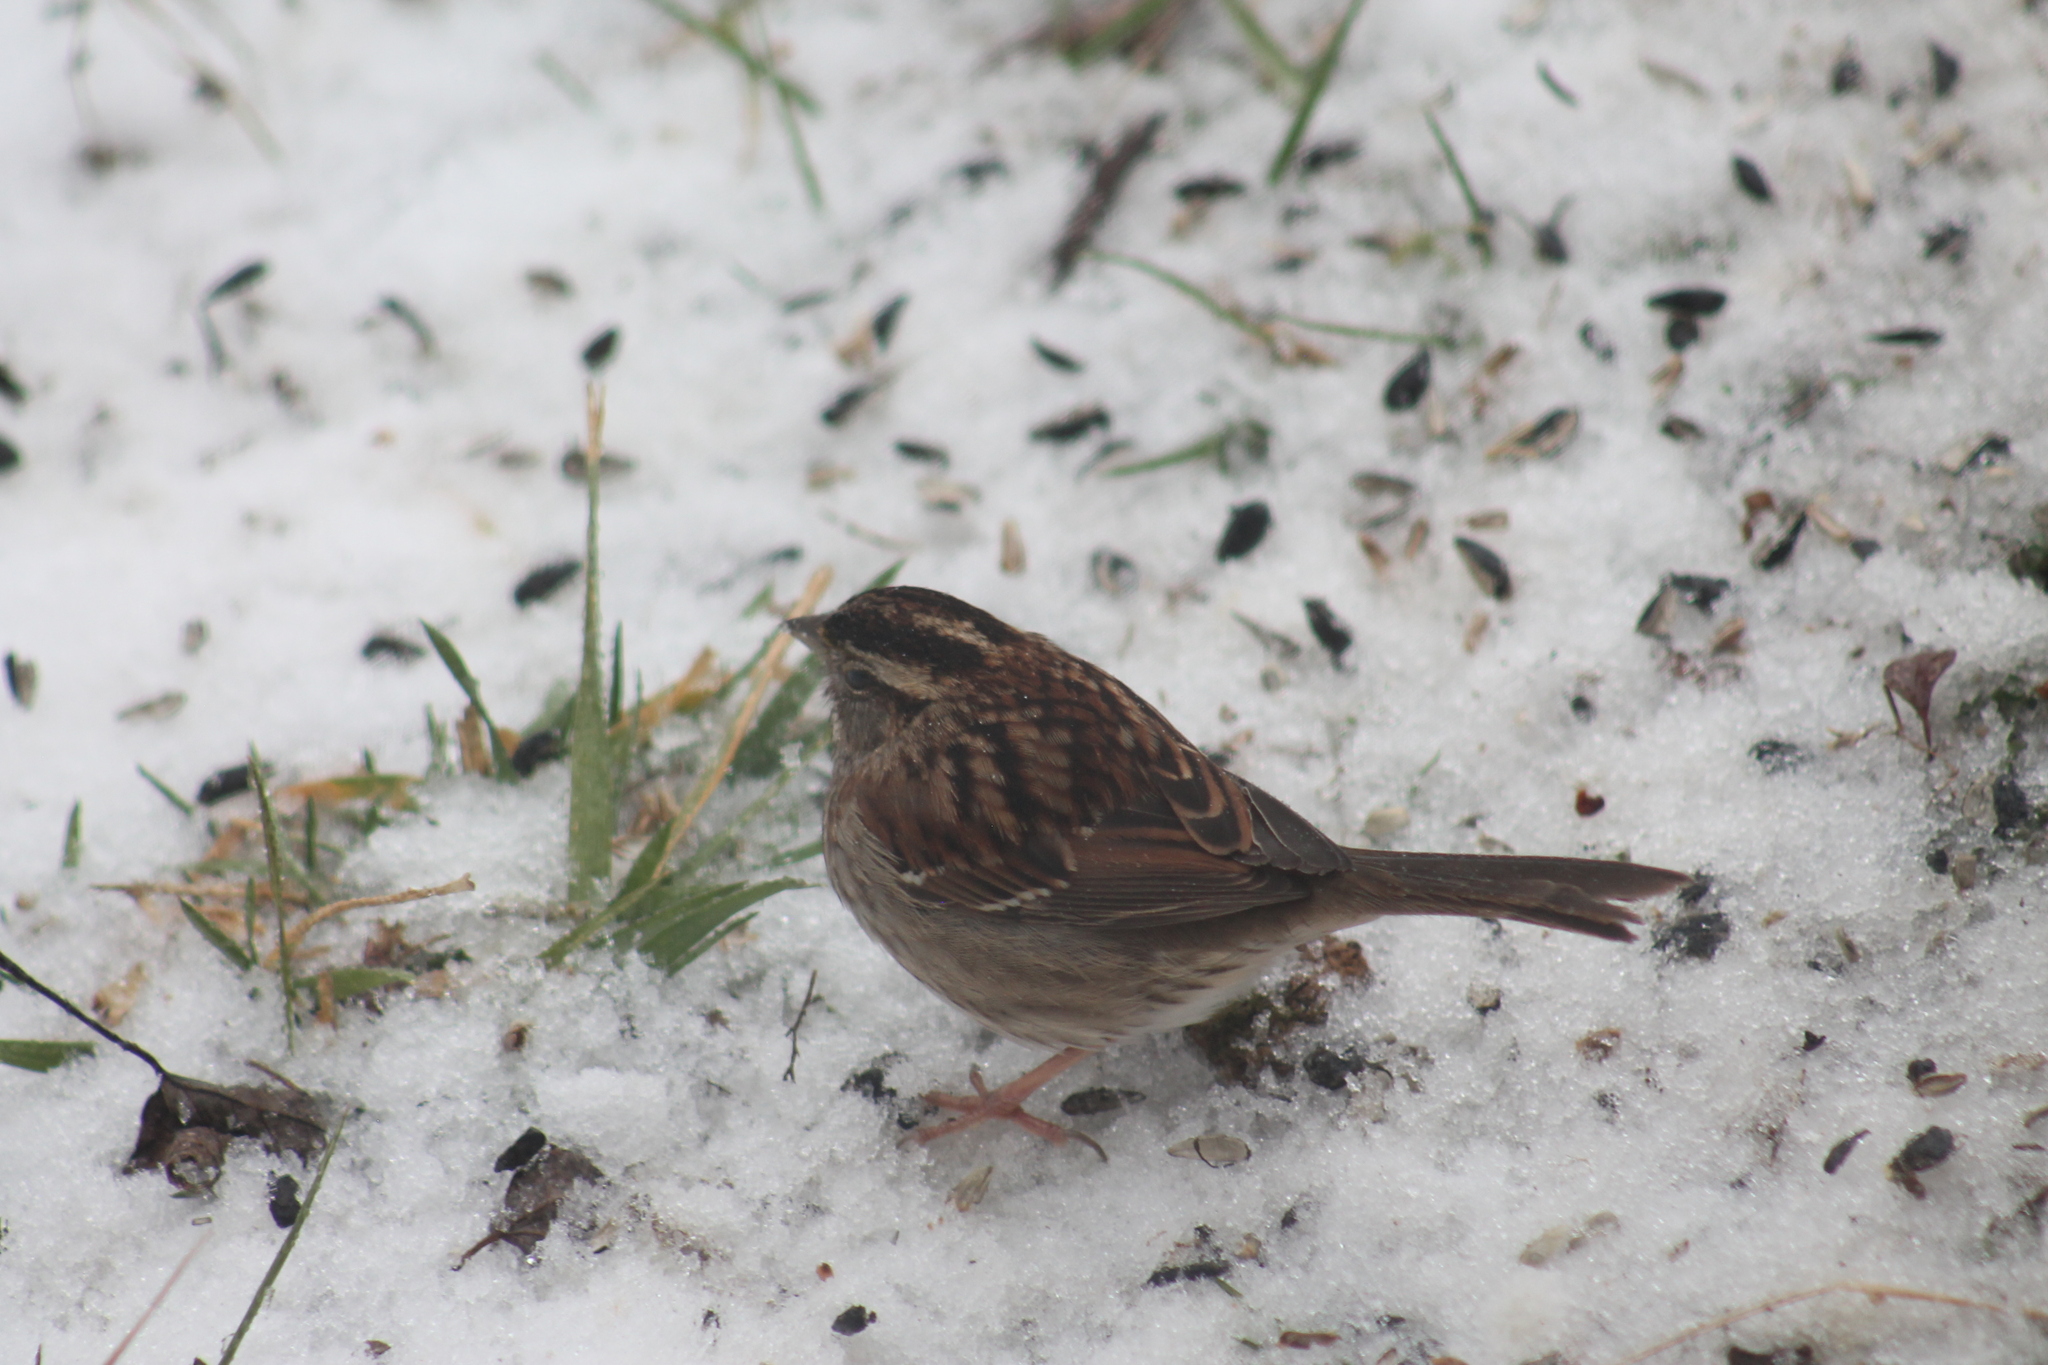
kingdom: Animalia
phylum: Chordata
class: Aves
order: Passeriformes
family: Passerellidae
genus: Zonotrichia
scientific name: Zonotrichia albicollis
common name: White-throated sparrow
